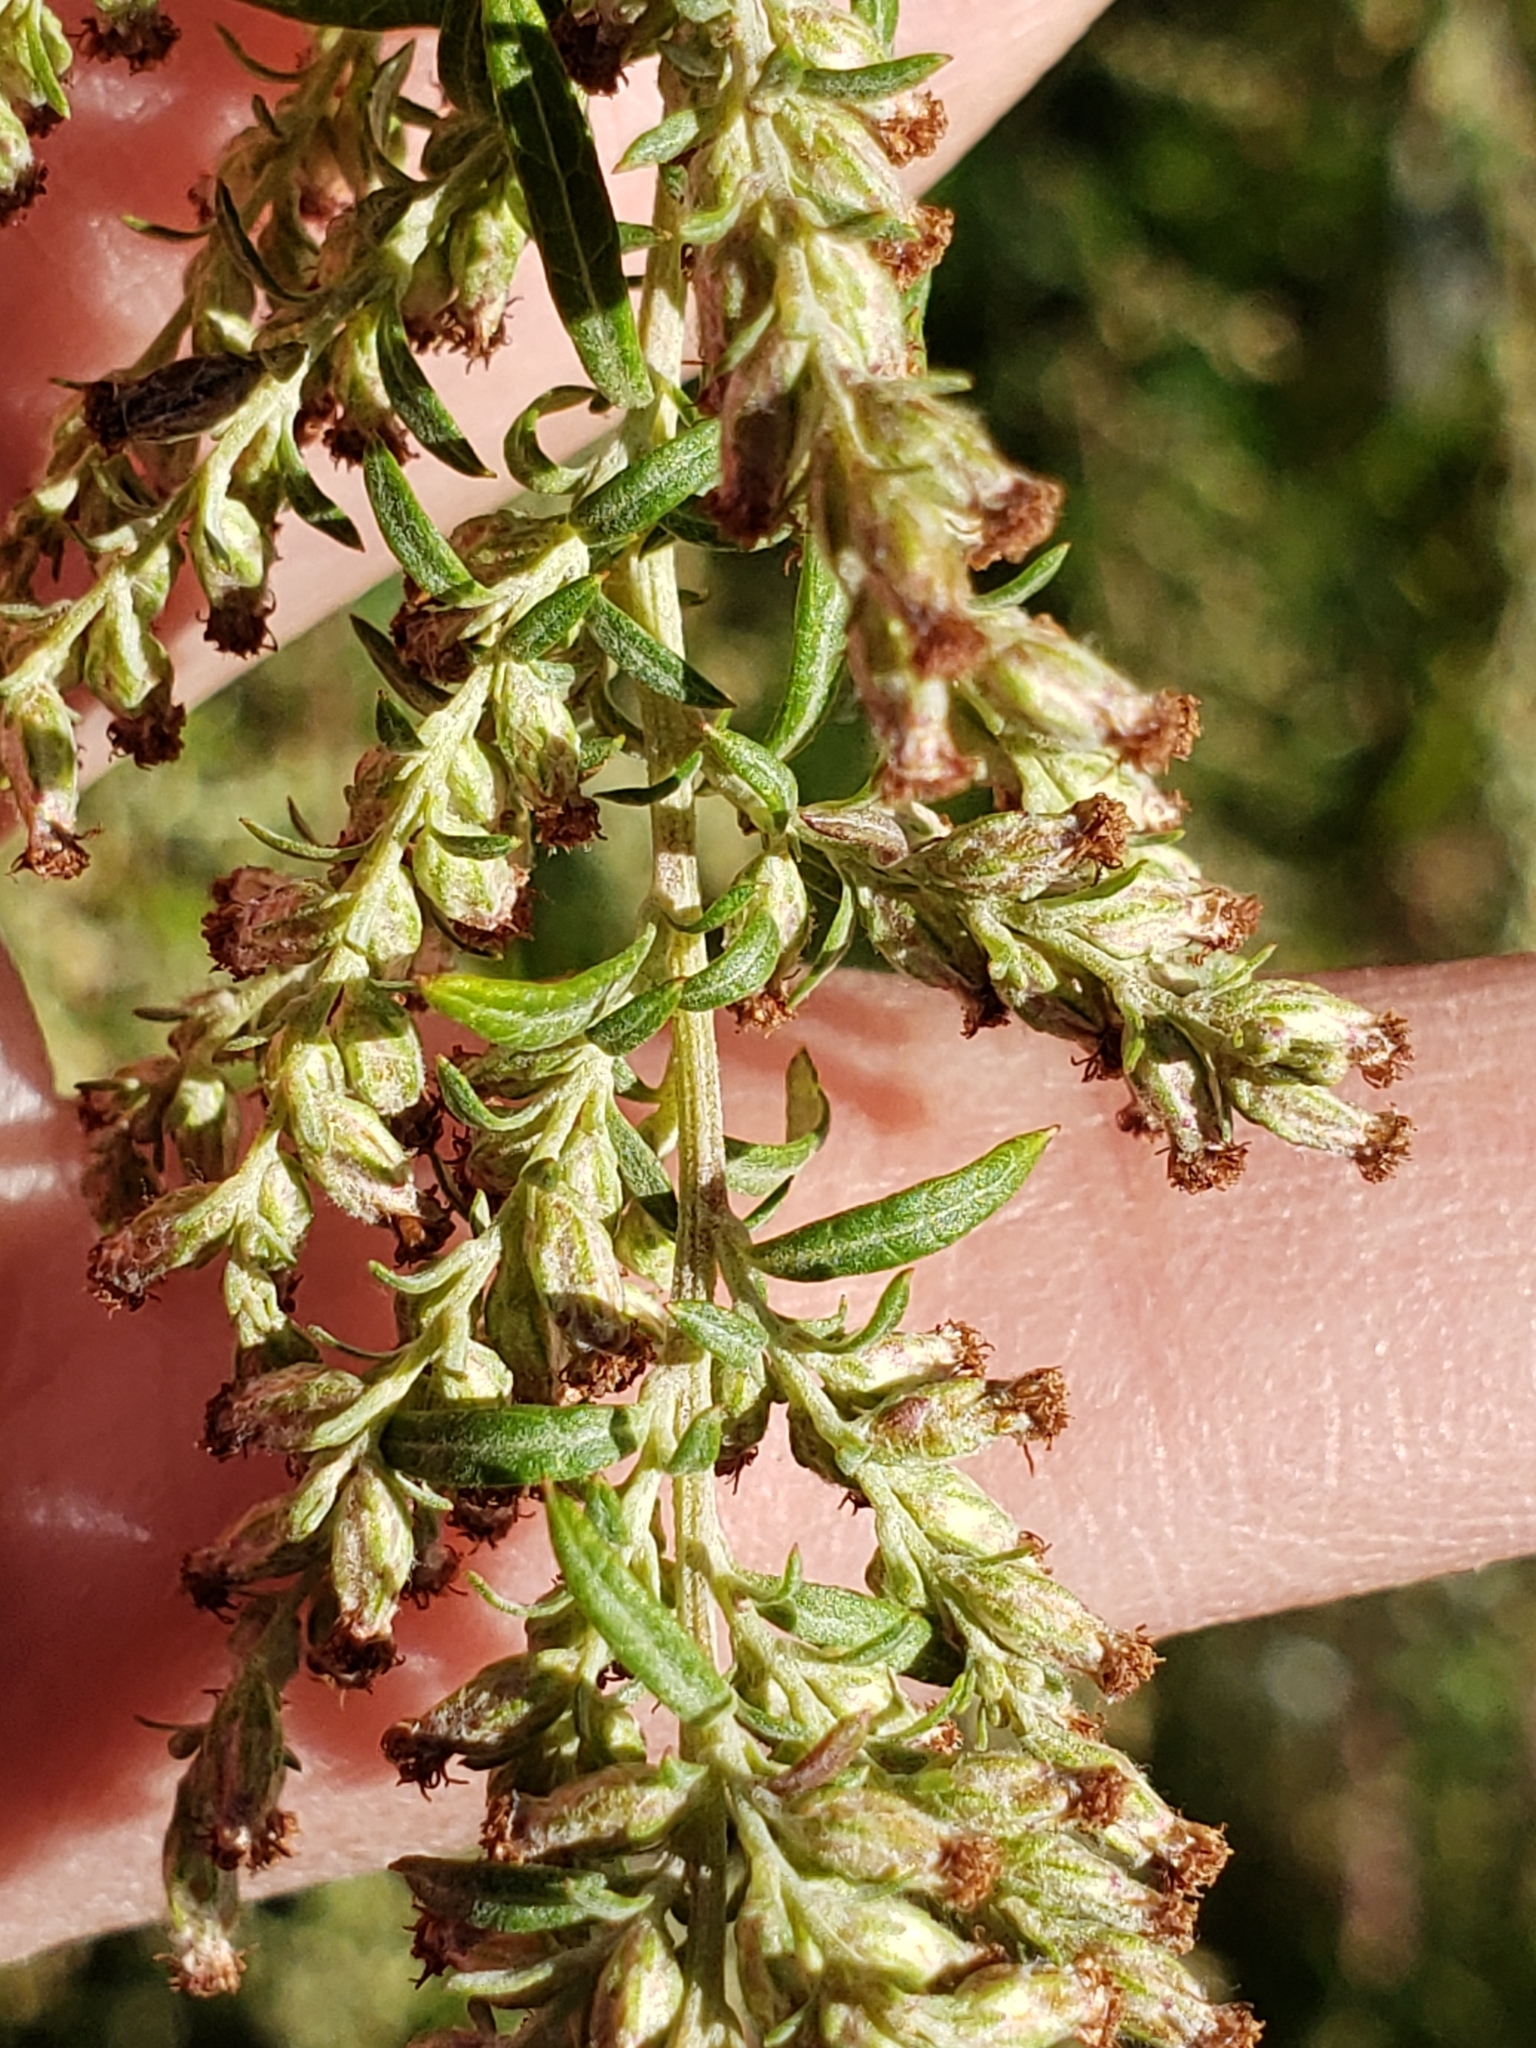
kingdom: Plantae
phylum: Tracheophyta
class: Magnoliopsida
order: Asterales
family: Asteraceae
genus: Artemisia
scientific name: Artemisia vulgaris
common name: Mugwort
